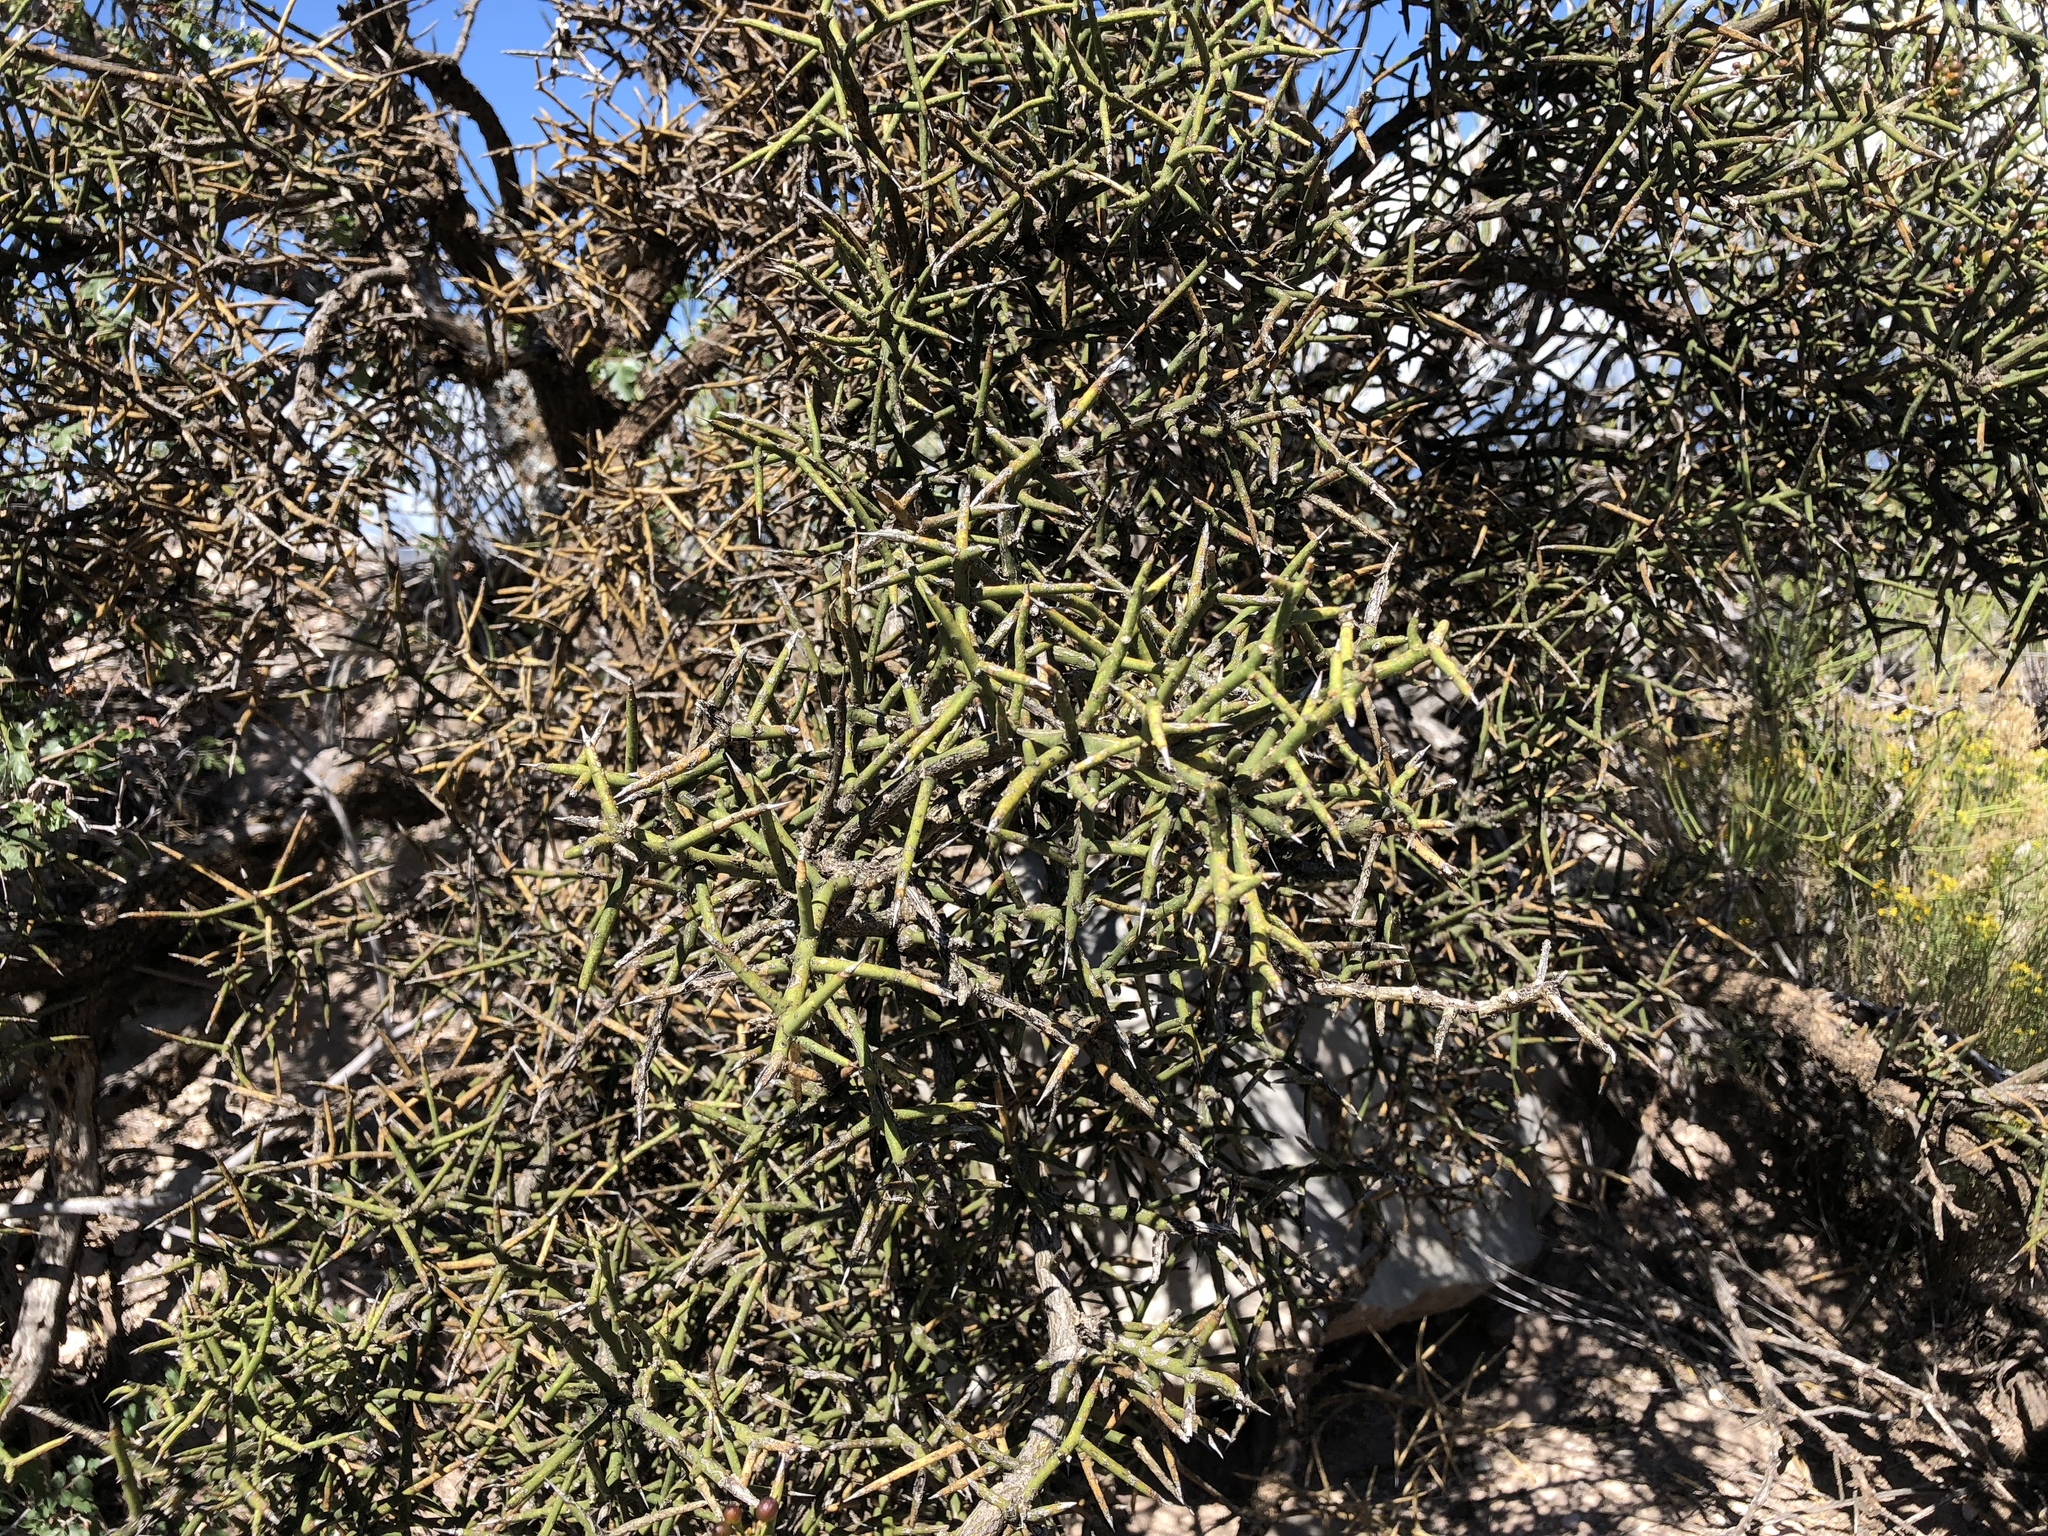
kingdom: Plantae
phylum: Tracheophyta
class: Magnoliopsida
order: Brassicales
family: Koeberliniaceae
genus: Koeberlinia
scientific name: Koeberlinia spinosa
